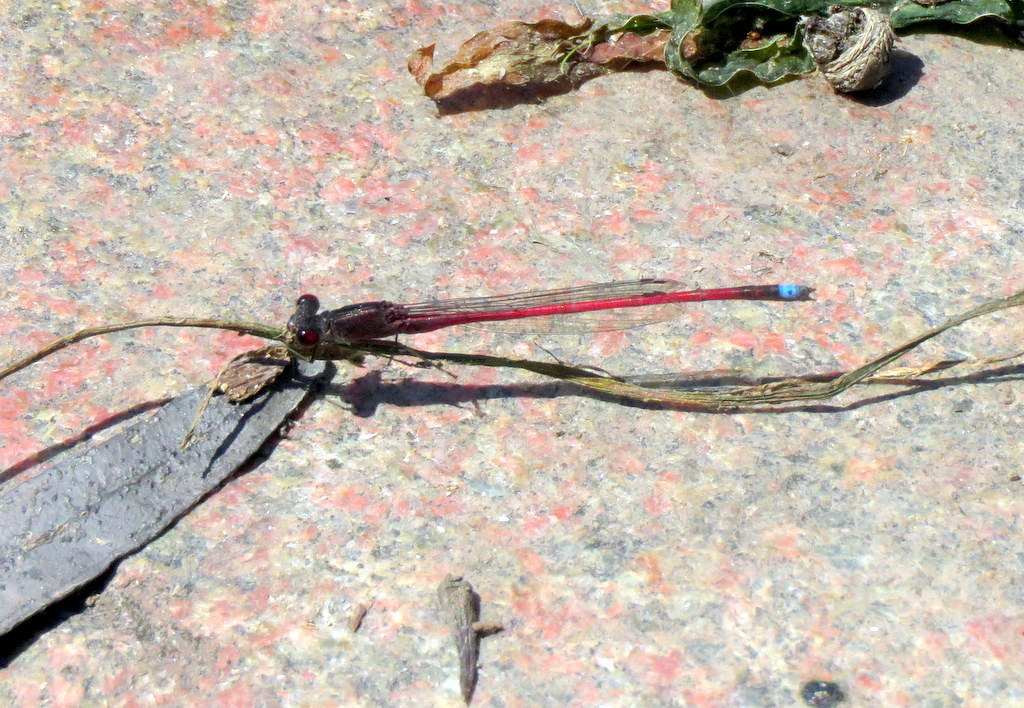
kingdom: Animalia
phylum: Arthropoda
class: Insecta
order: Odonata
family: Coenagrionidae
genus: Oxyagrion
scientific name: Oxyagrion rubidum
